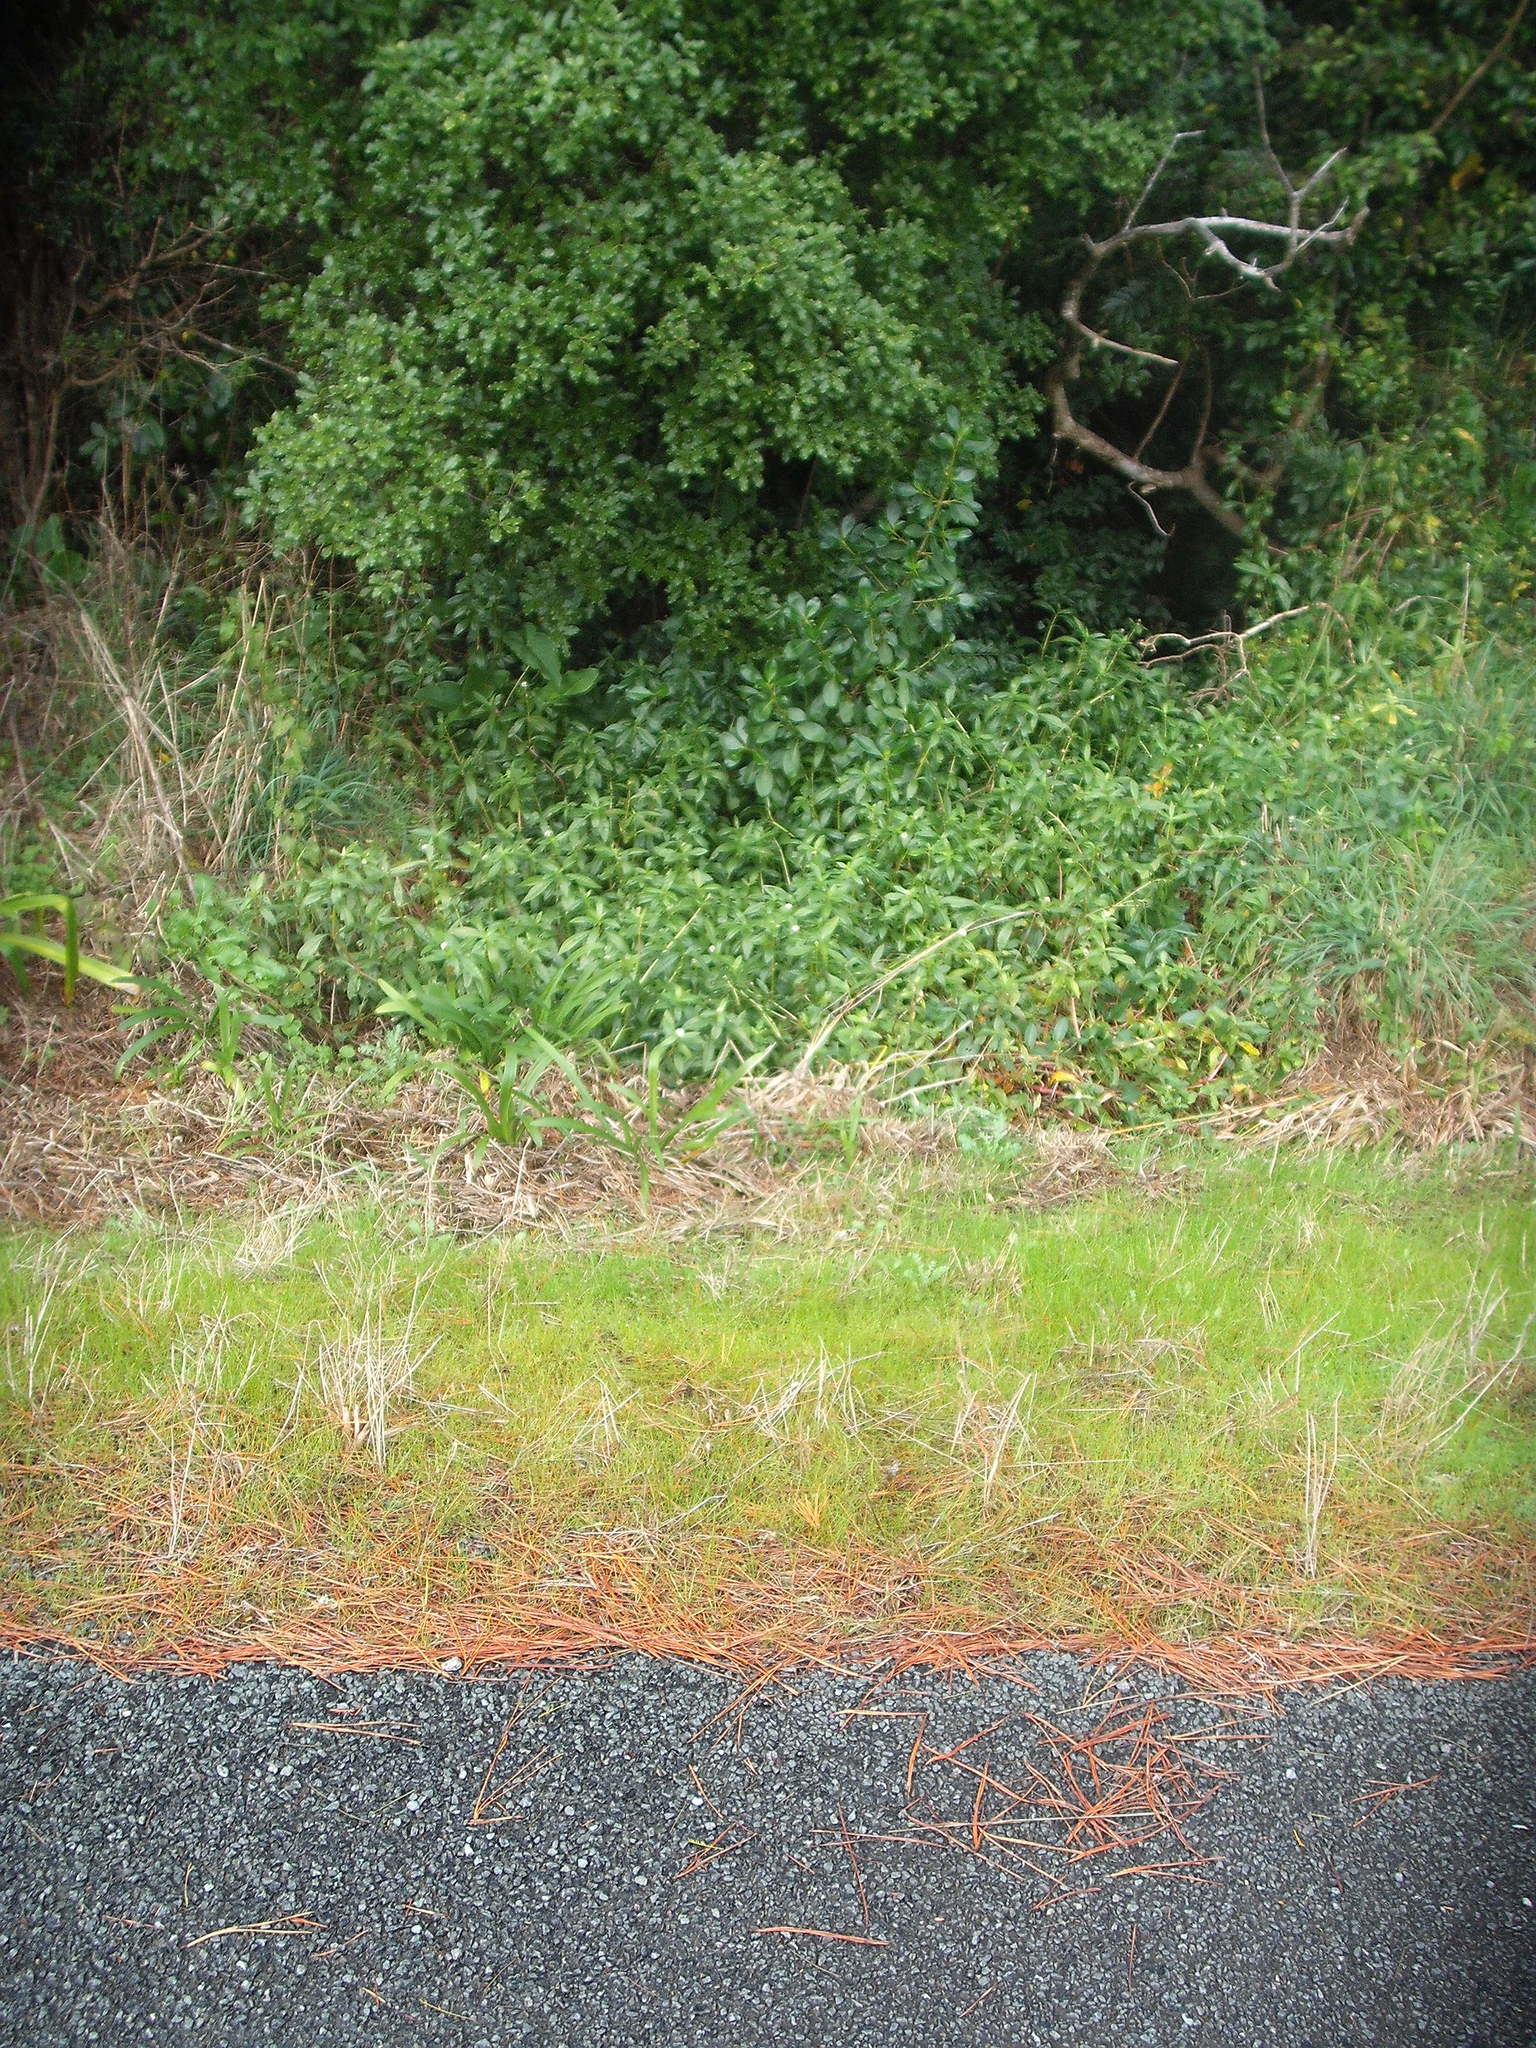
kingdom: Plantae
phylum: Tracheophyta
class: Magnoliopsida
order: Caryophyllales
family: Amaranthaceae
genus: Alternanthera
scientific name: Alternanthera philoxeroides
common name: Alligatorweed
